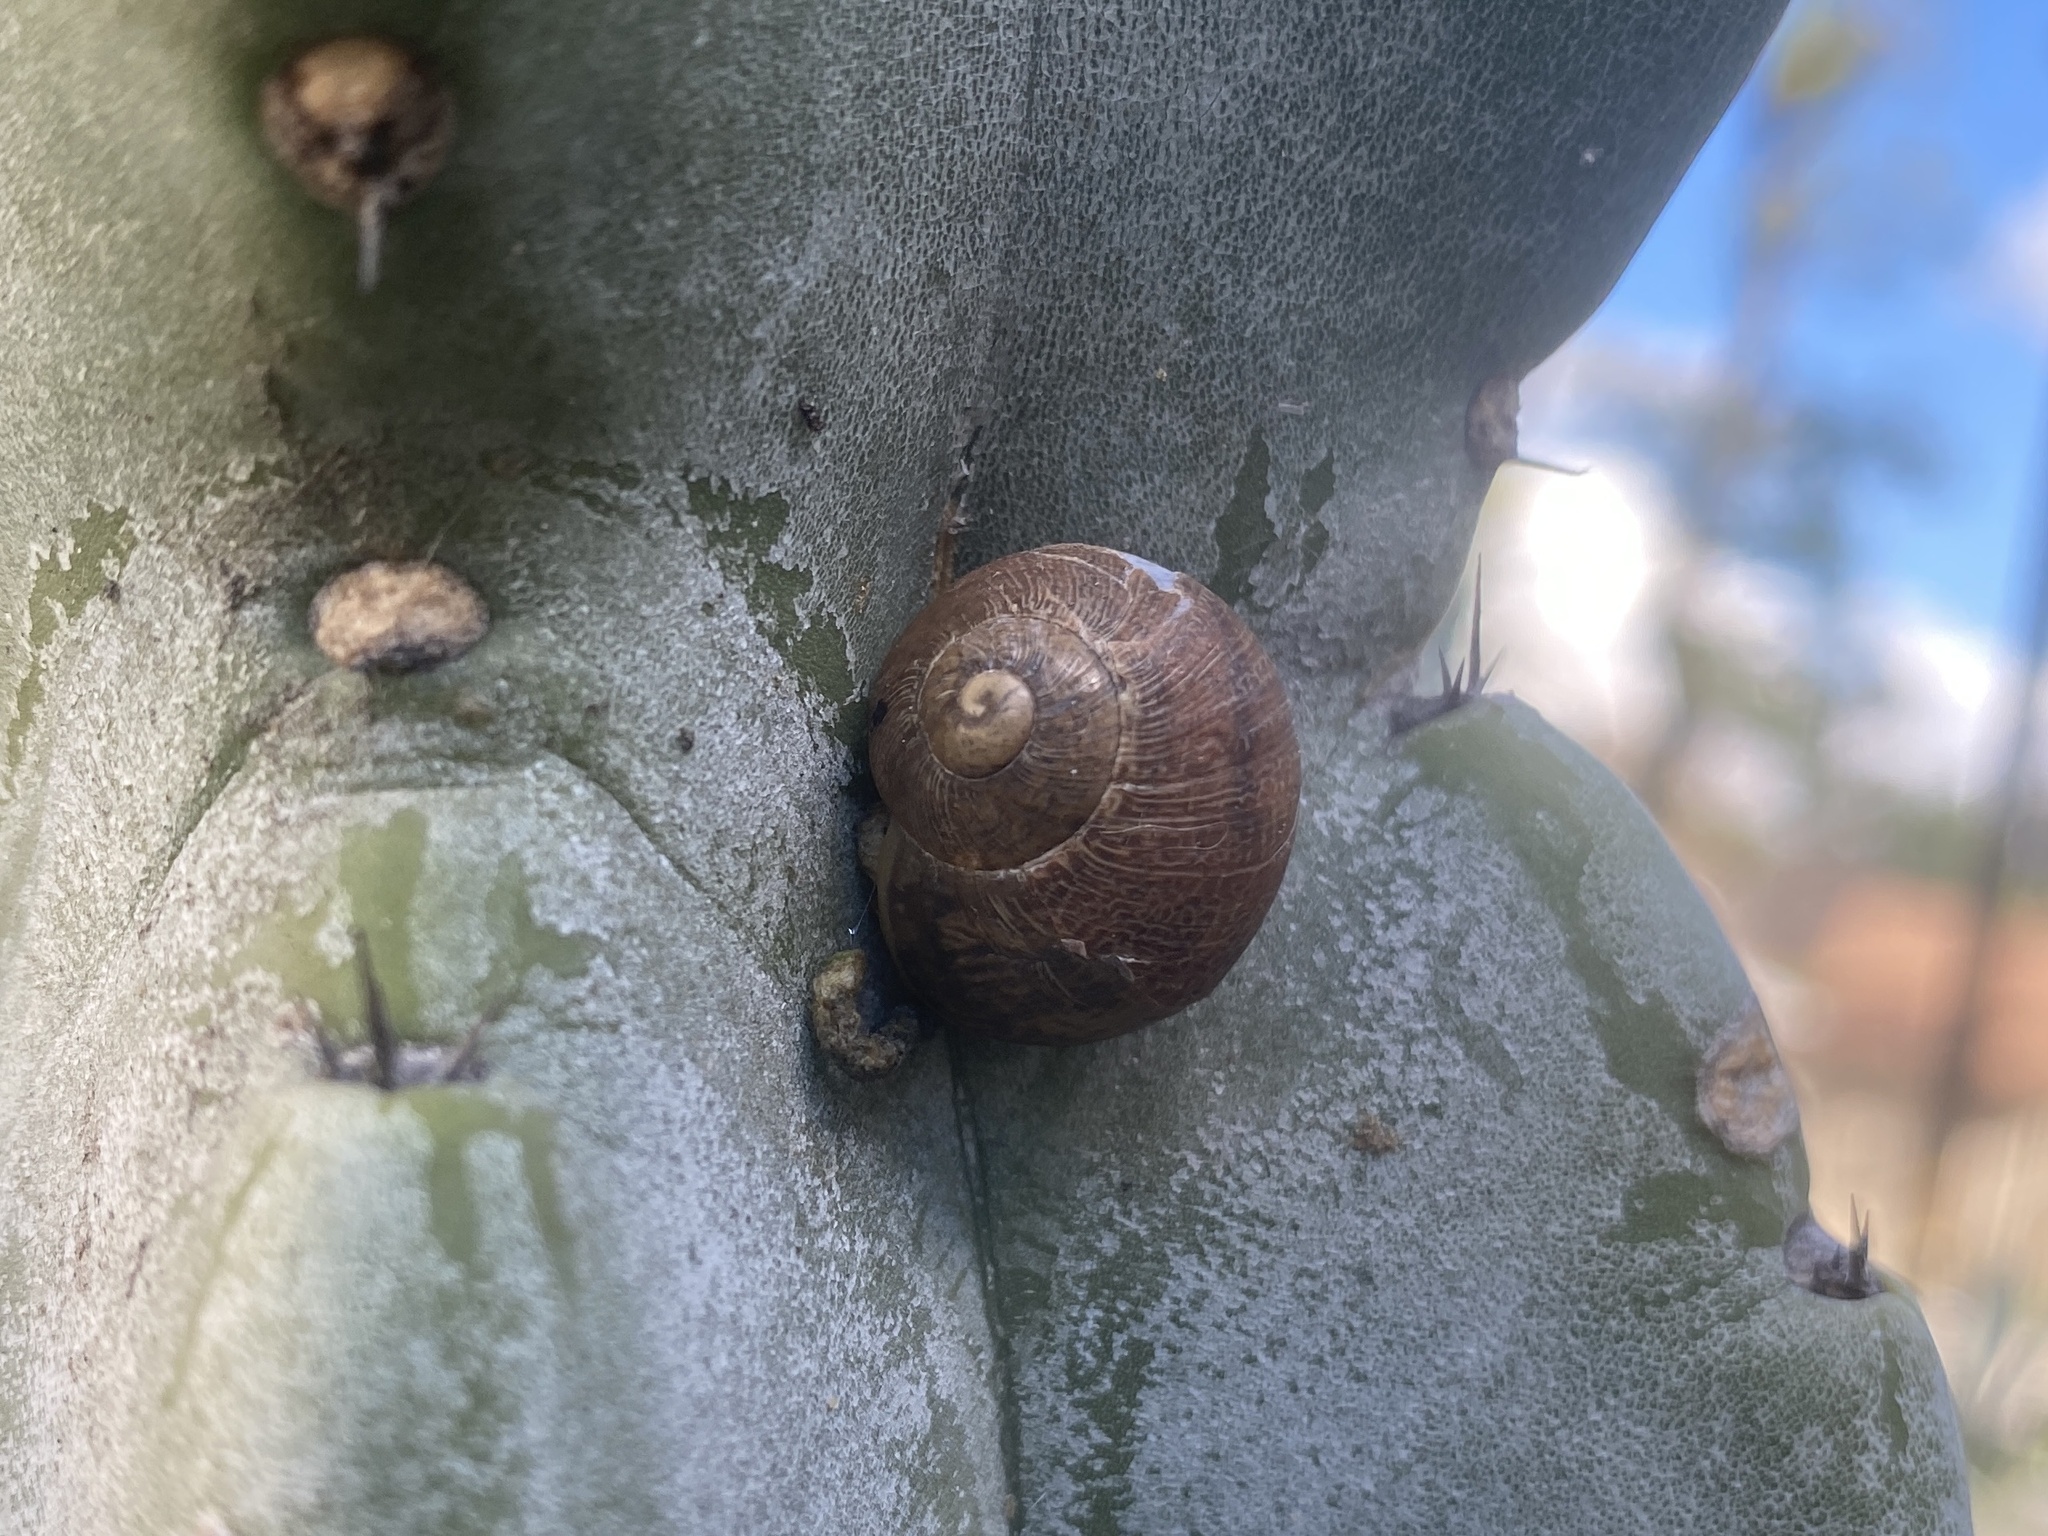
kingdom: Animalia
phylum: Mollusca
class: Gastropoda
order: Stylommatophora
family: Helicidae
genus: Cornu
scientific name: Cornu aspersum
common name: Brown garden snail
